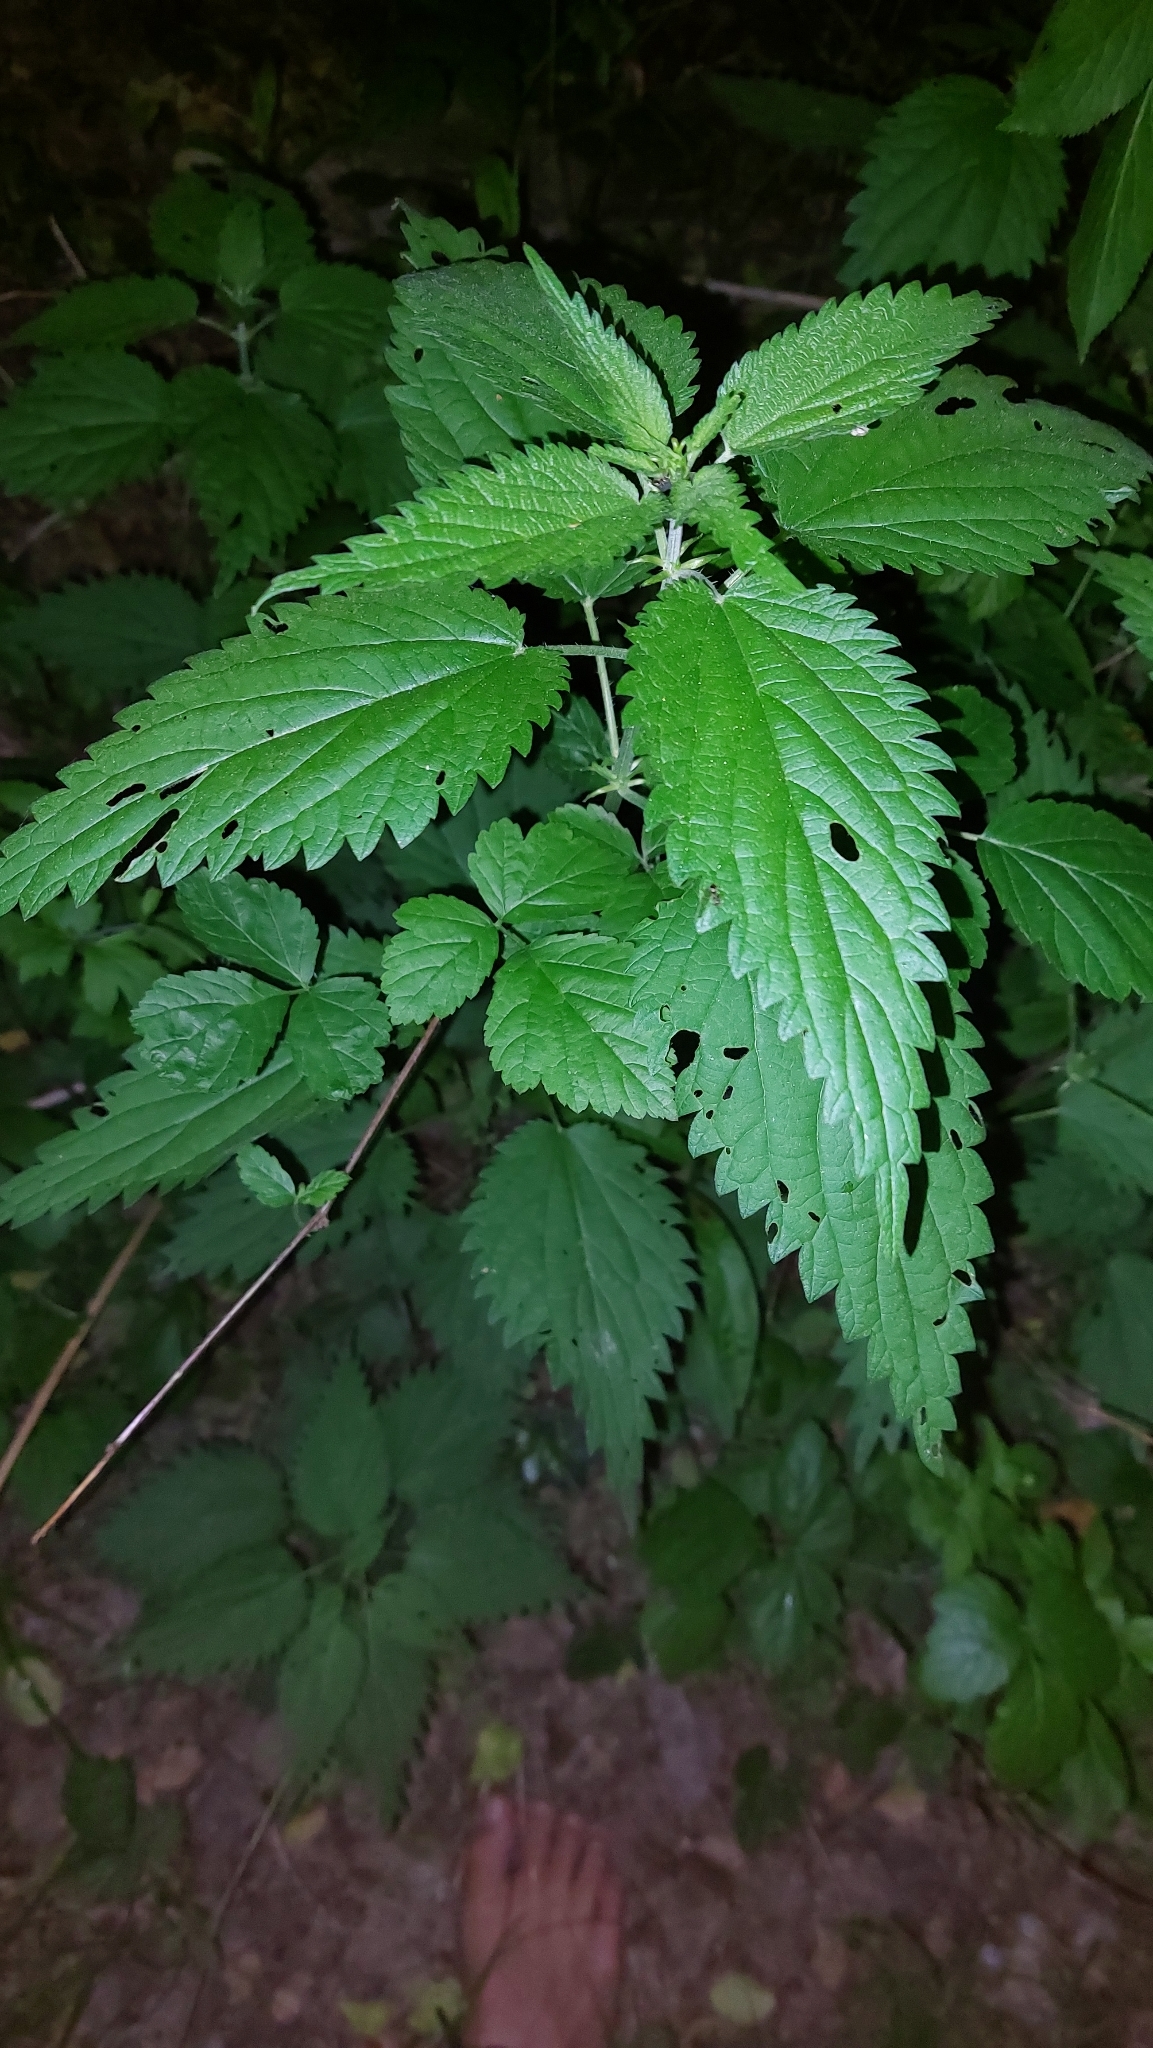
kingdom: Plantae
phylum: Tracheophyta
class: Magnoliopsida
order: Rosales
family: Urticaceae
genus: Urtica
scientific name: Urtica dioica
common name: Common nettle
